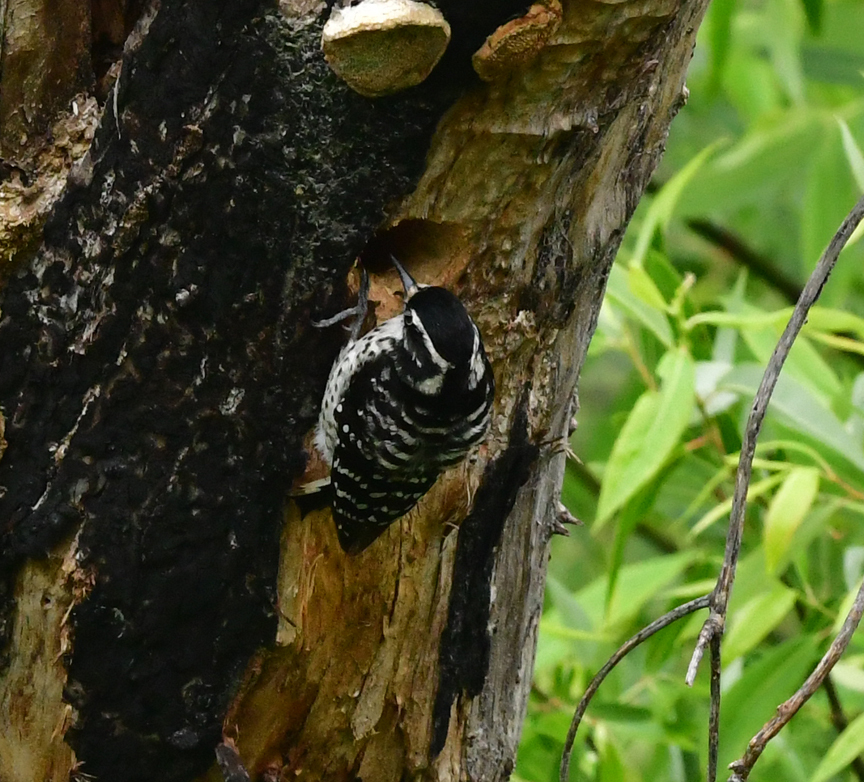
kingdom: Animalia
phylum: Chordata
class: Aves
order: Piciformes
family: Picidae
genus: Dryobates
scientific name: Dryobates nuttallii
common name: Nuttall's woodpecker
